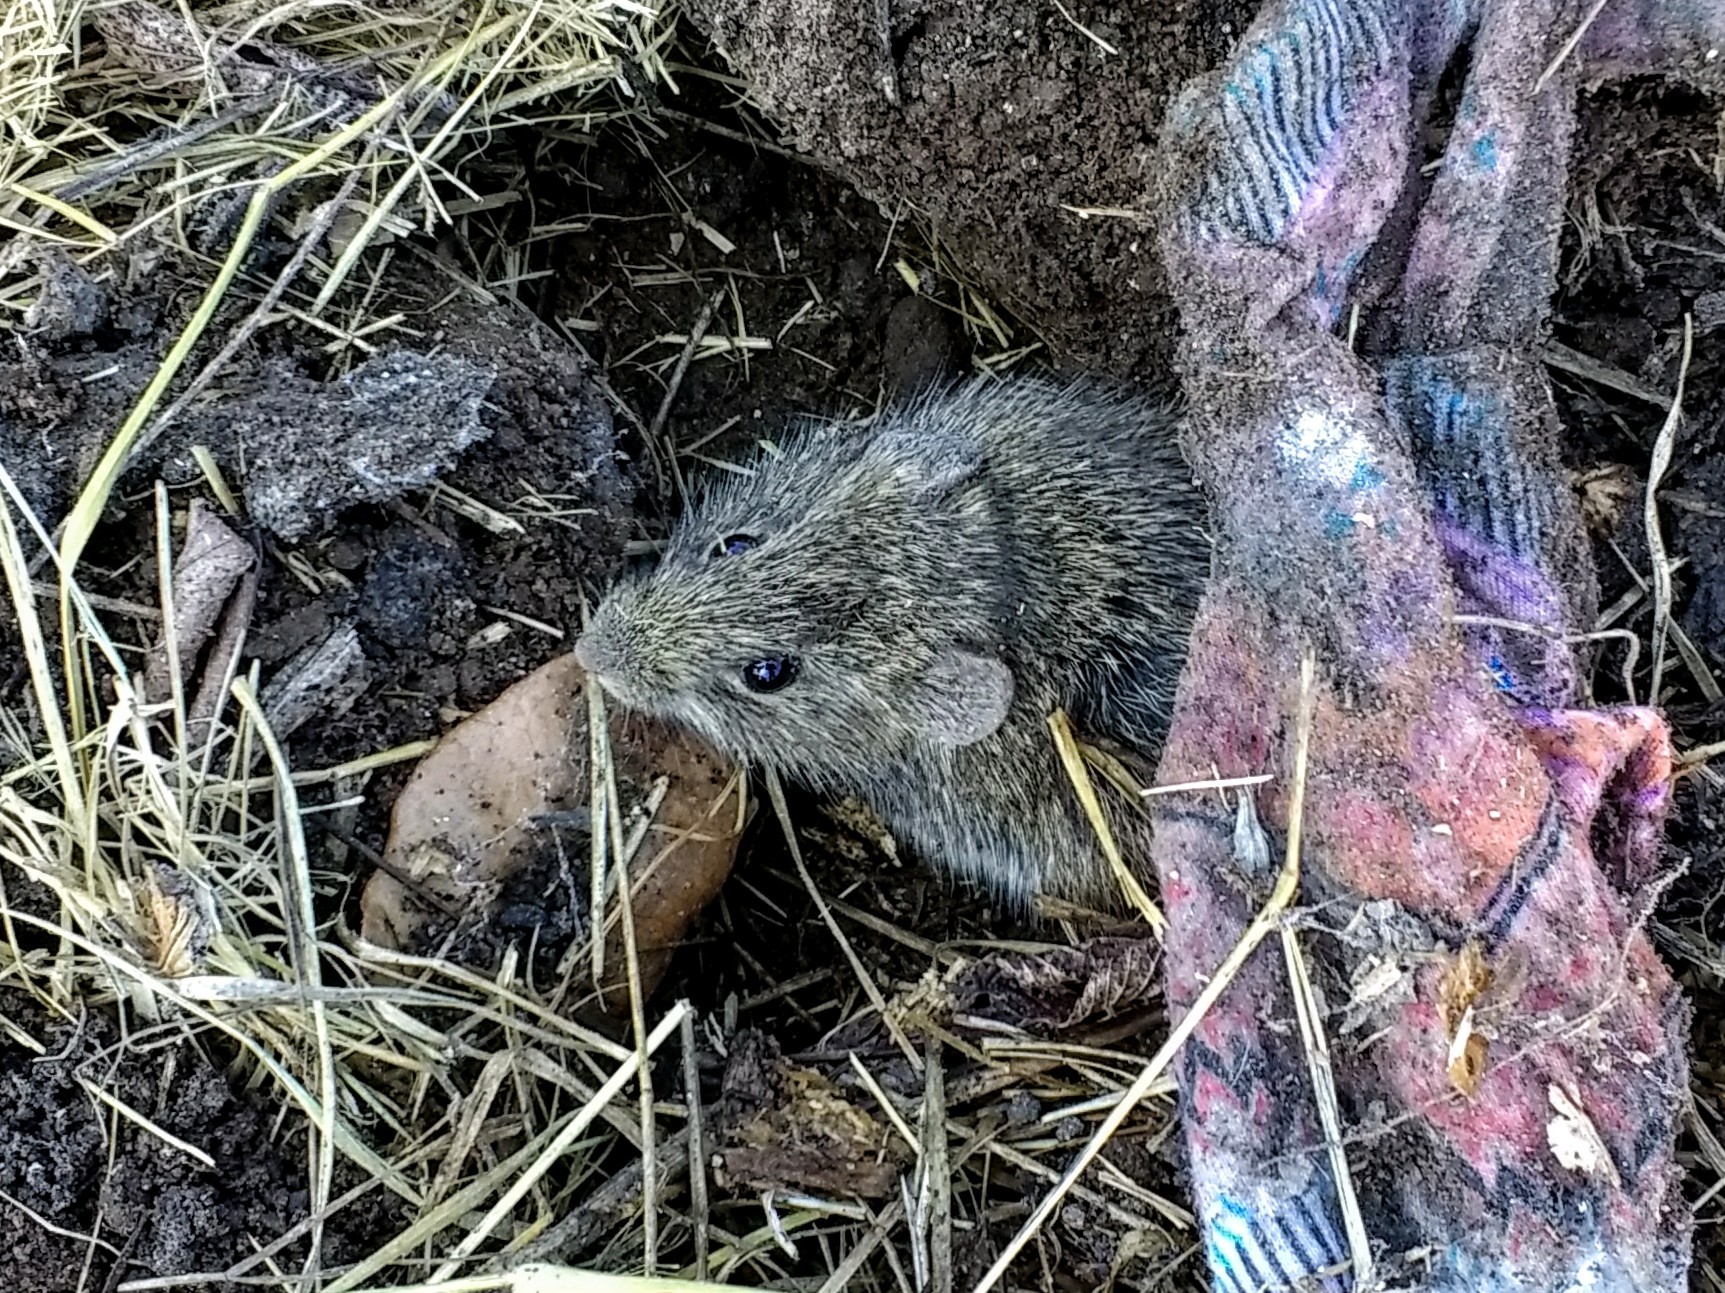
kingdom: Animalia
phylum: Chordata
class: Mammalia
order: Rodentia
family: Cricetidae
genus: Sigmodon
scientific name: Sigmodon hispidus
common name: Hispid cotton rat
